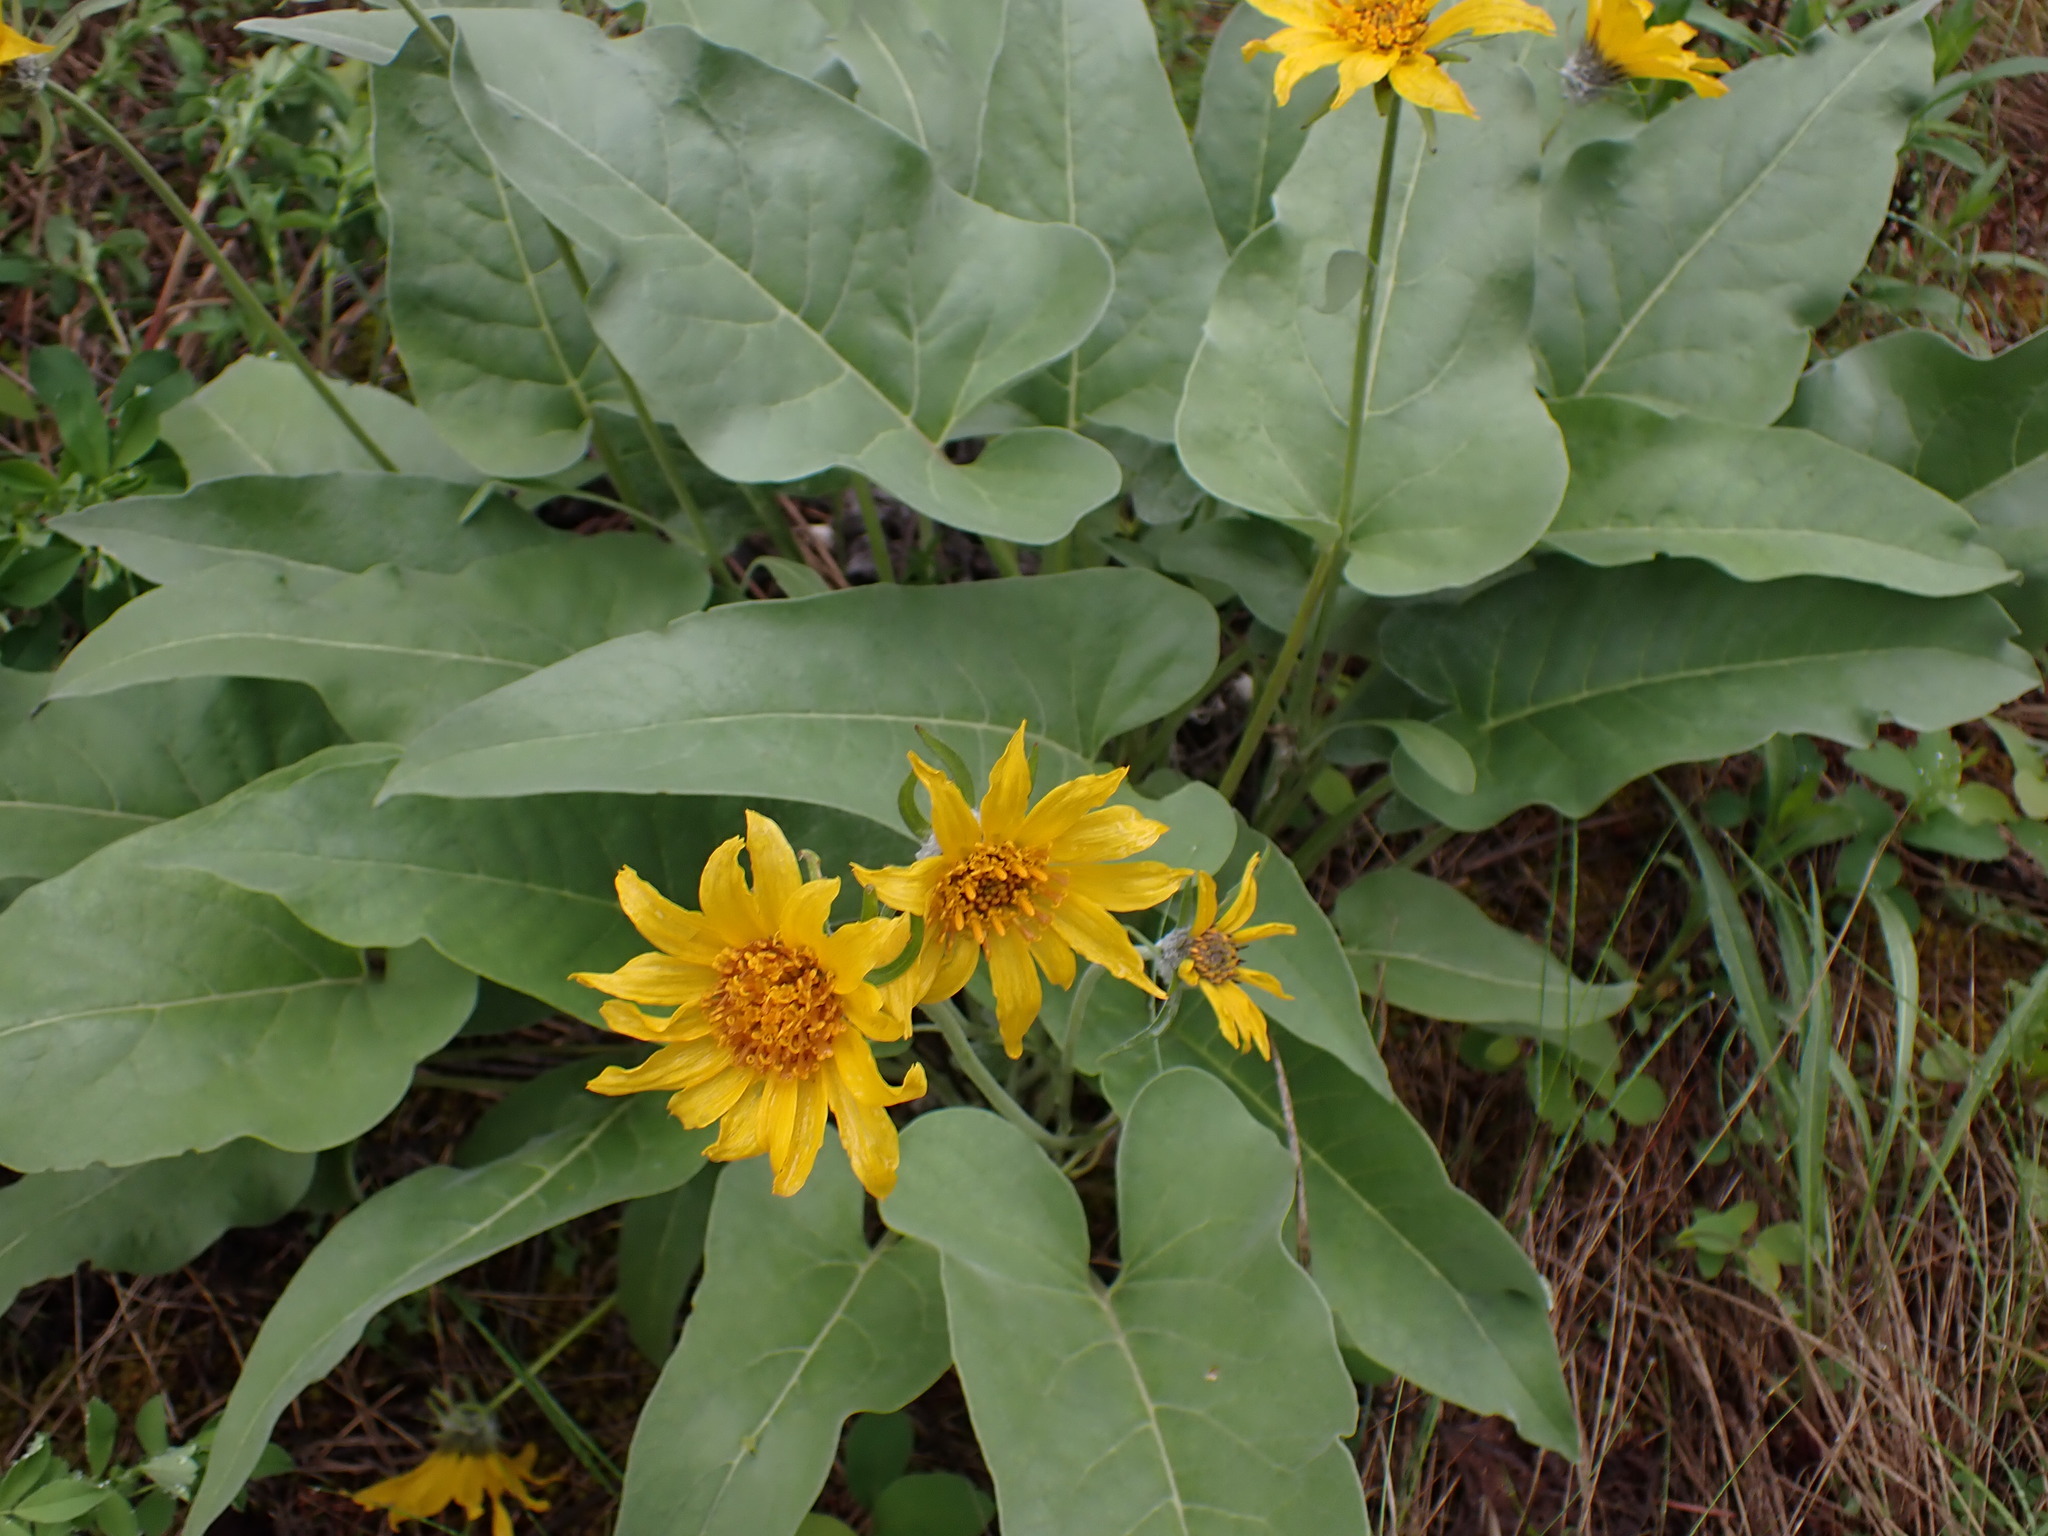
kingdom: Plantae
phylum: Tracheophyta
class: Magnoliopsida
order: Asterales
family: Asteraceae
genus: Wyethia
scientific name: Wyethia sagittata
